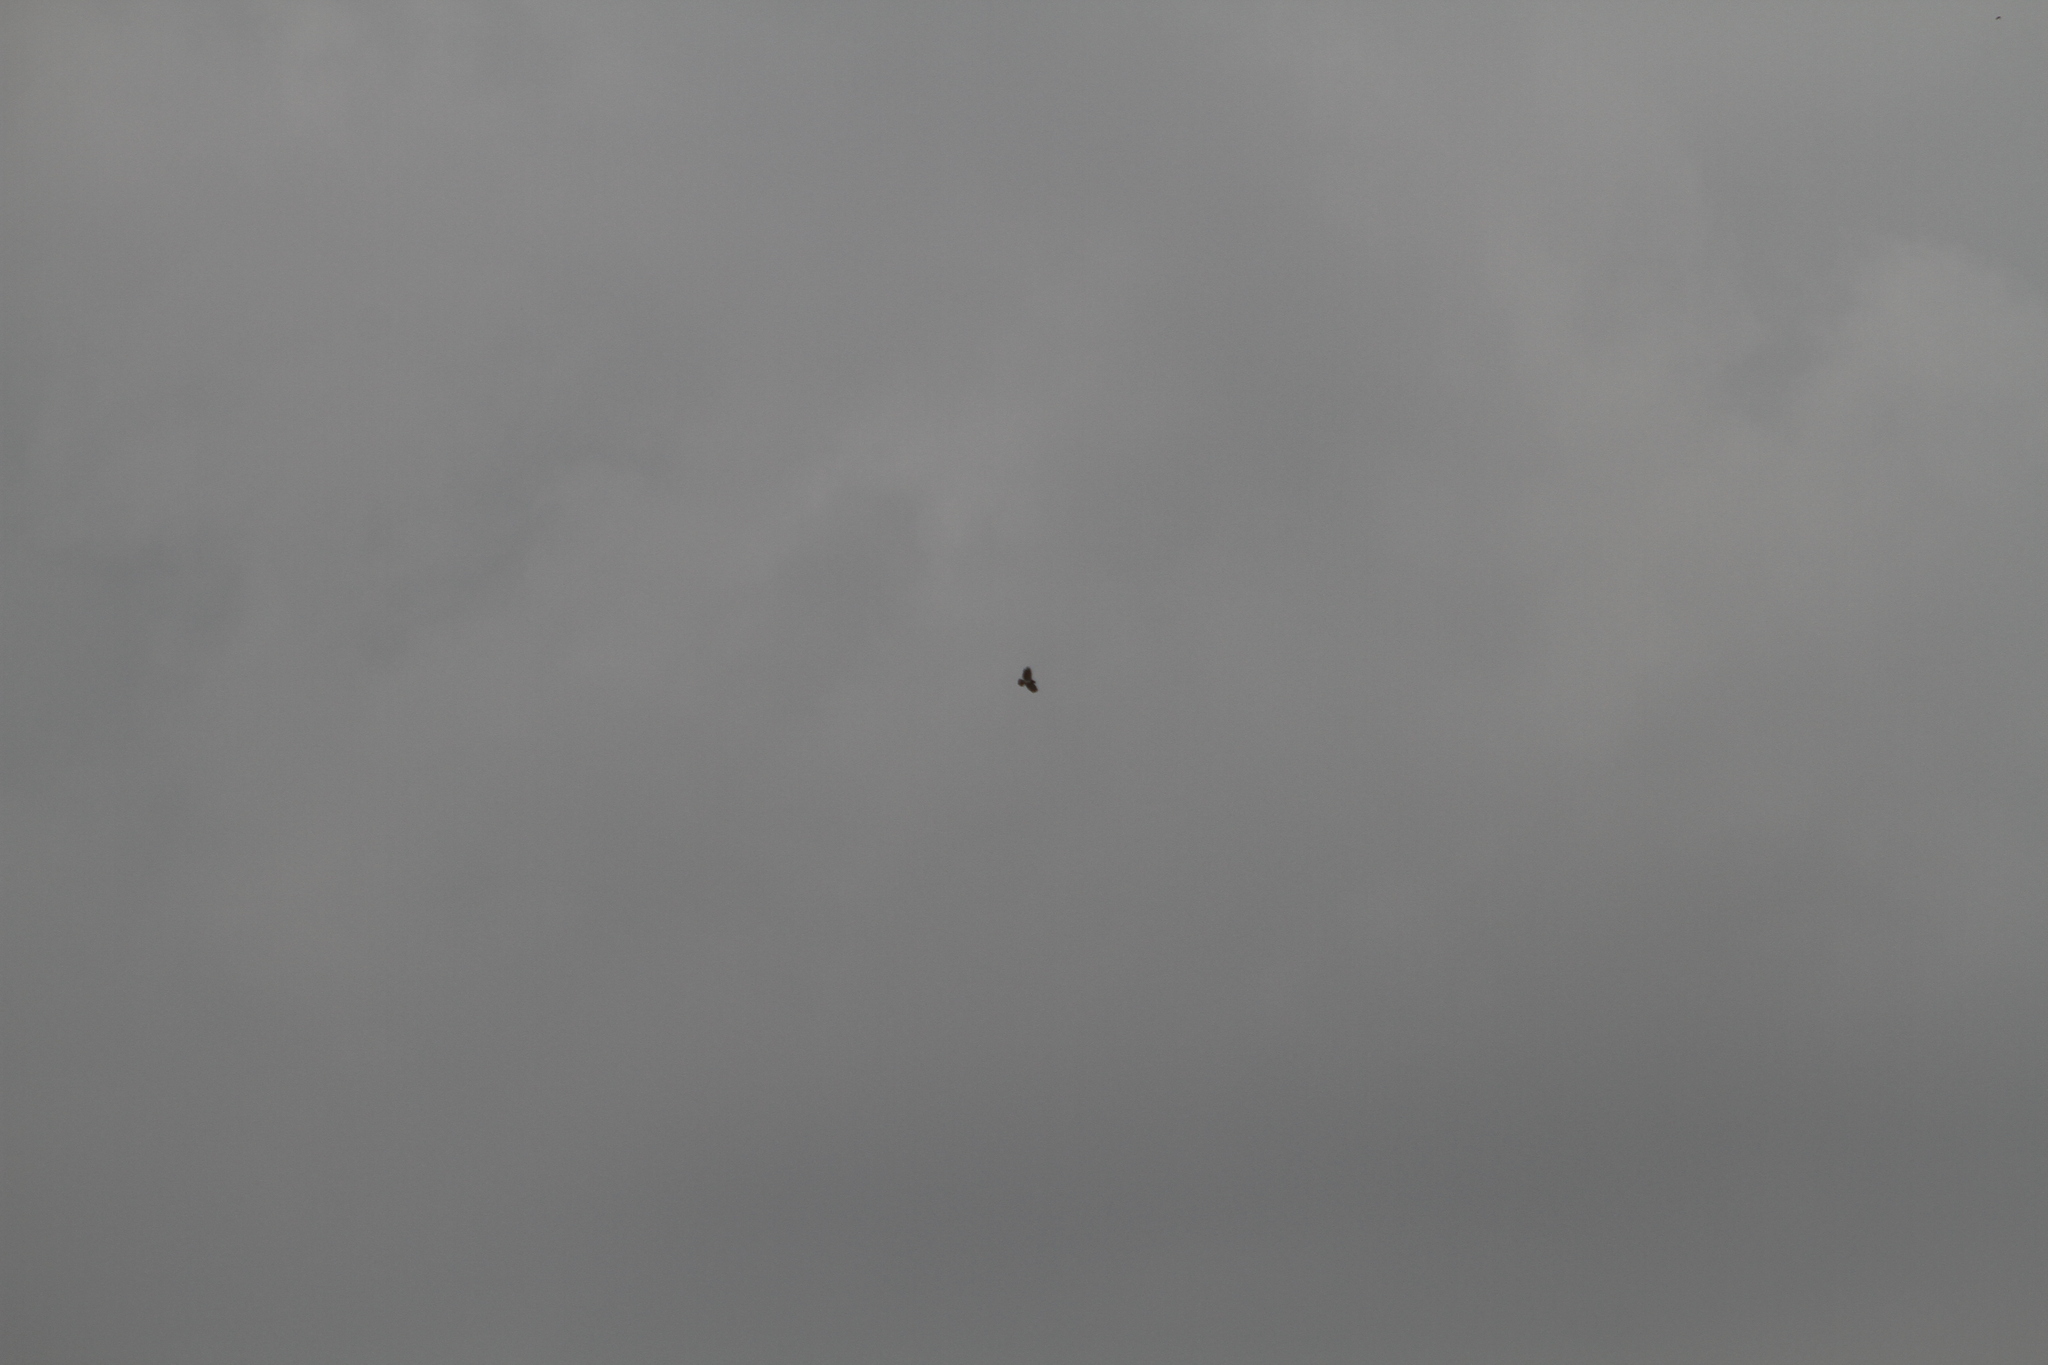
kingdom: Animalia
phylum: Chordata
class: Aves
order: Accipitriformes
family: Accipitridae
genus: Circaetus
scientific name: Circaetus gallicus
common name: Short-toed snake eagle
